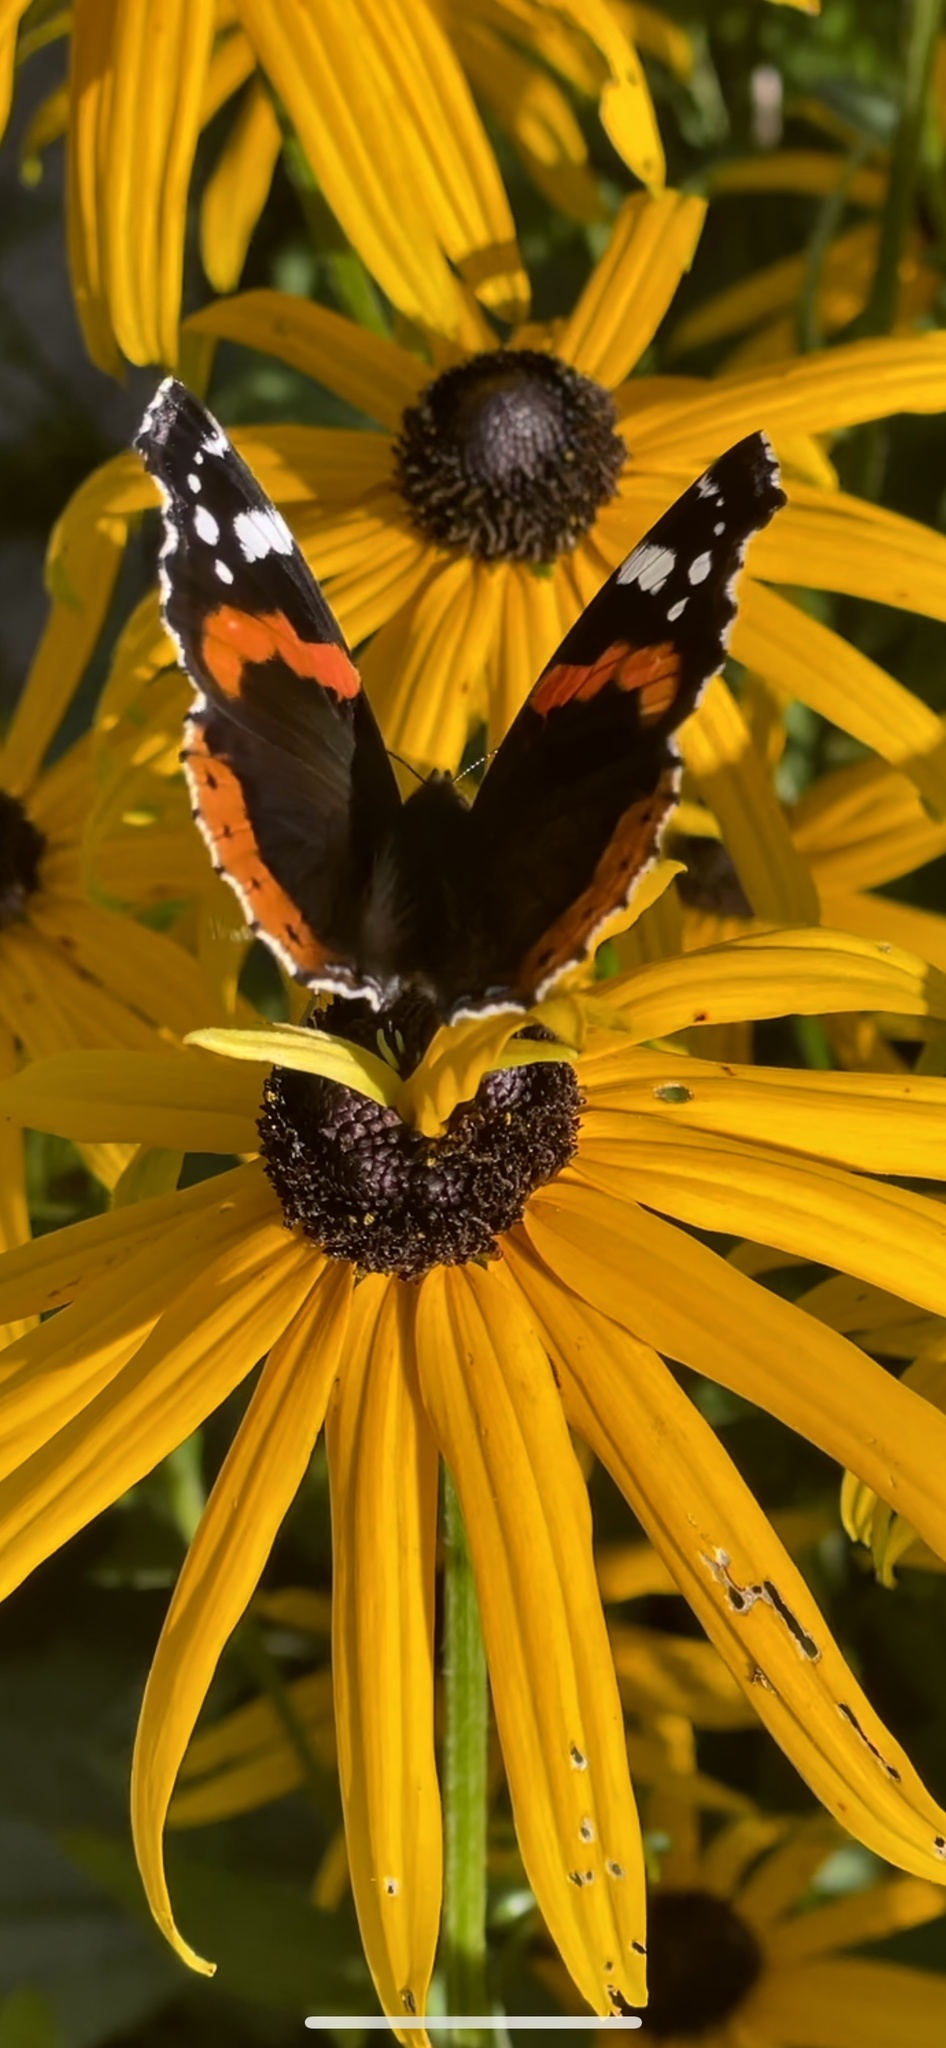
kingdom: Animalia
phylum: Arthropoda
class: Insecta
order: Lepidoptera
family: Nymphalidae
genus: Vanessa
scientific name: Vanessa atalanta
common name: Red admiral
